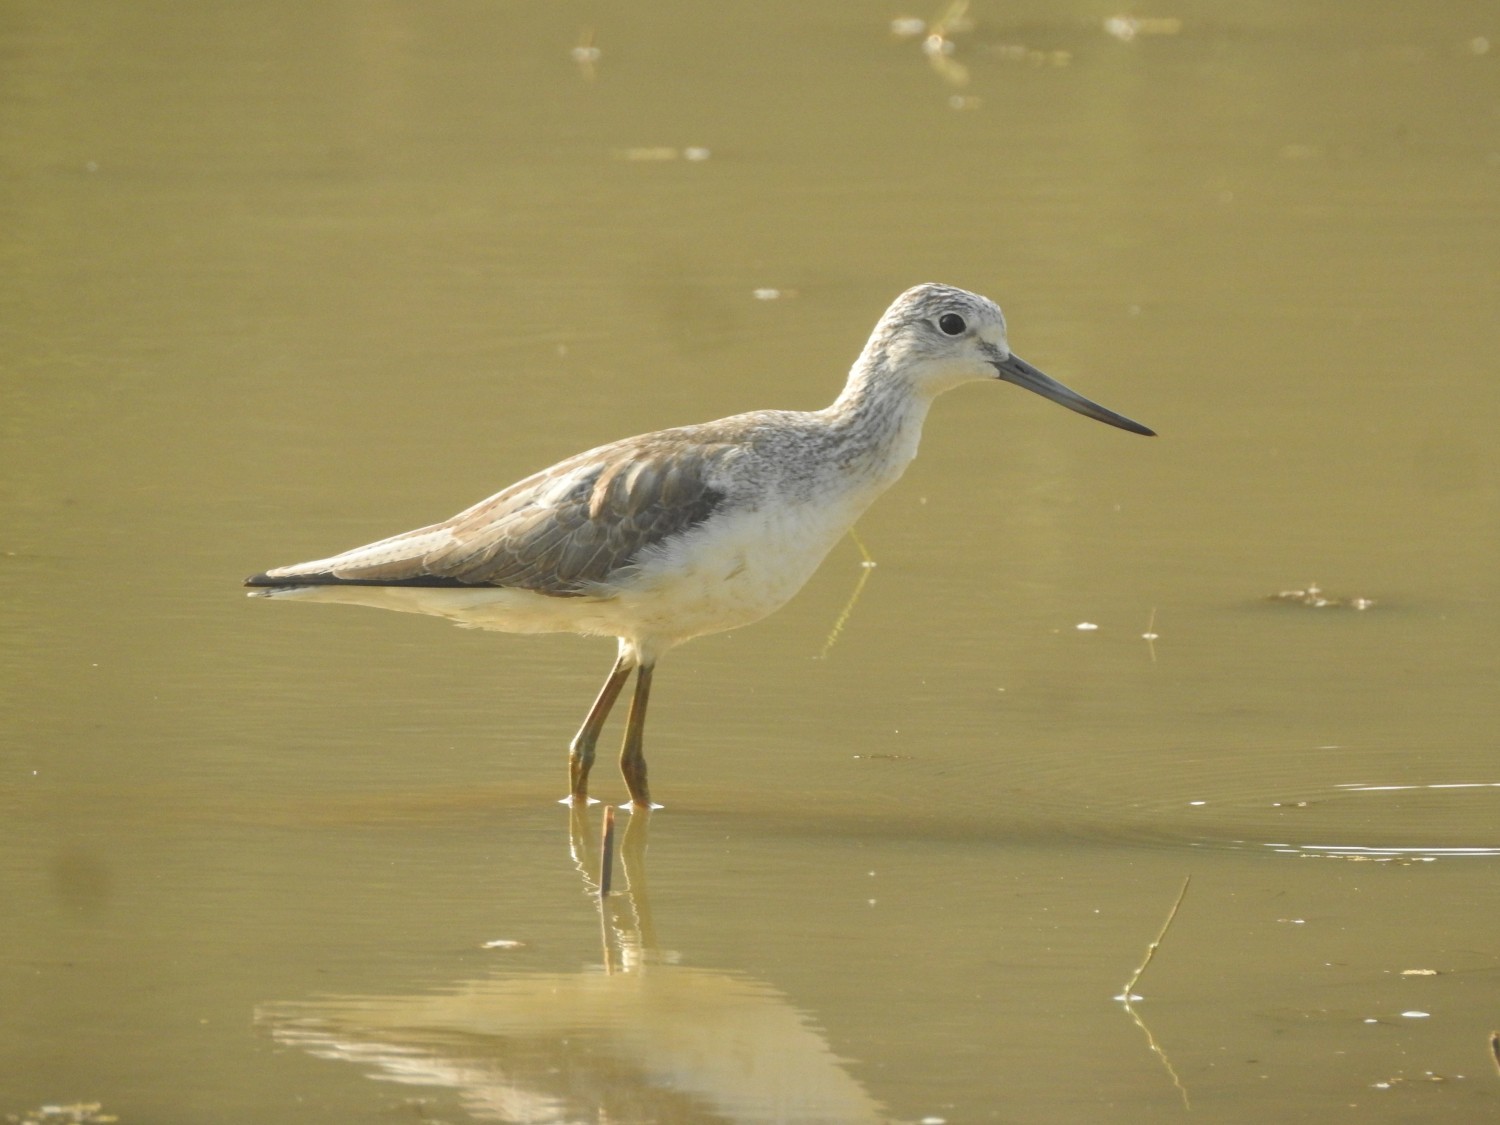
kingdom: Animalia
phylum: Chordata
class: Aves
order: Charadriiformes
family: Scolopacidae
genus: Tringa
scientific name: Tringa nebularia
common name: Common greenshank
